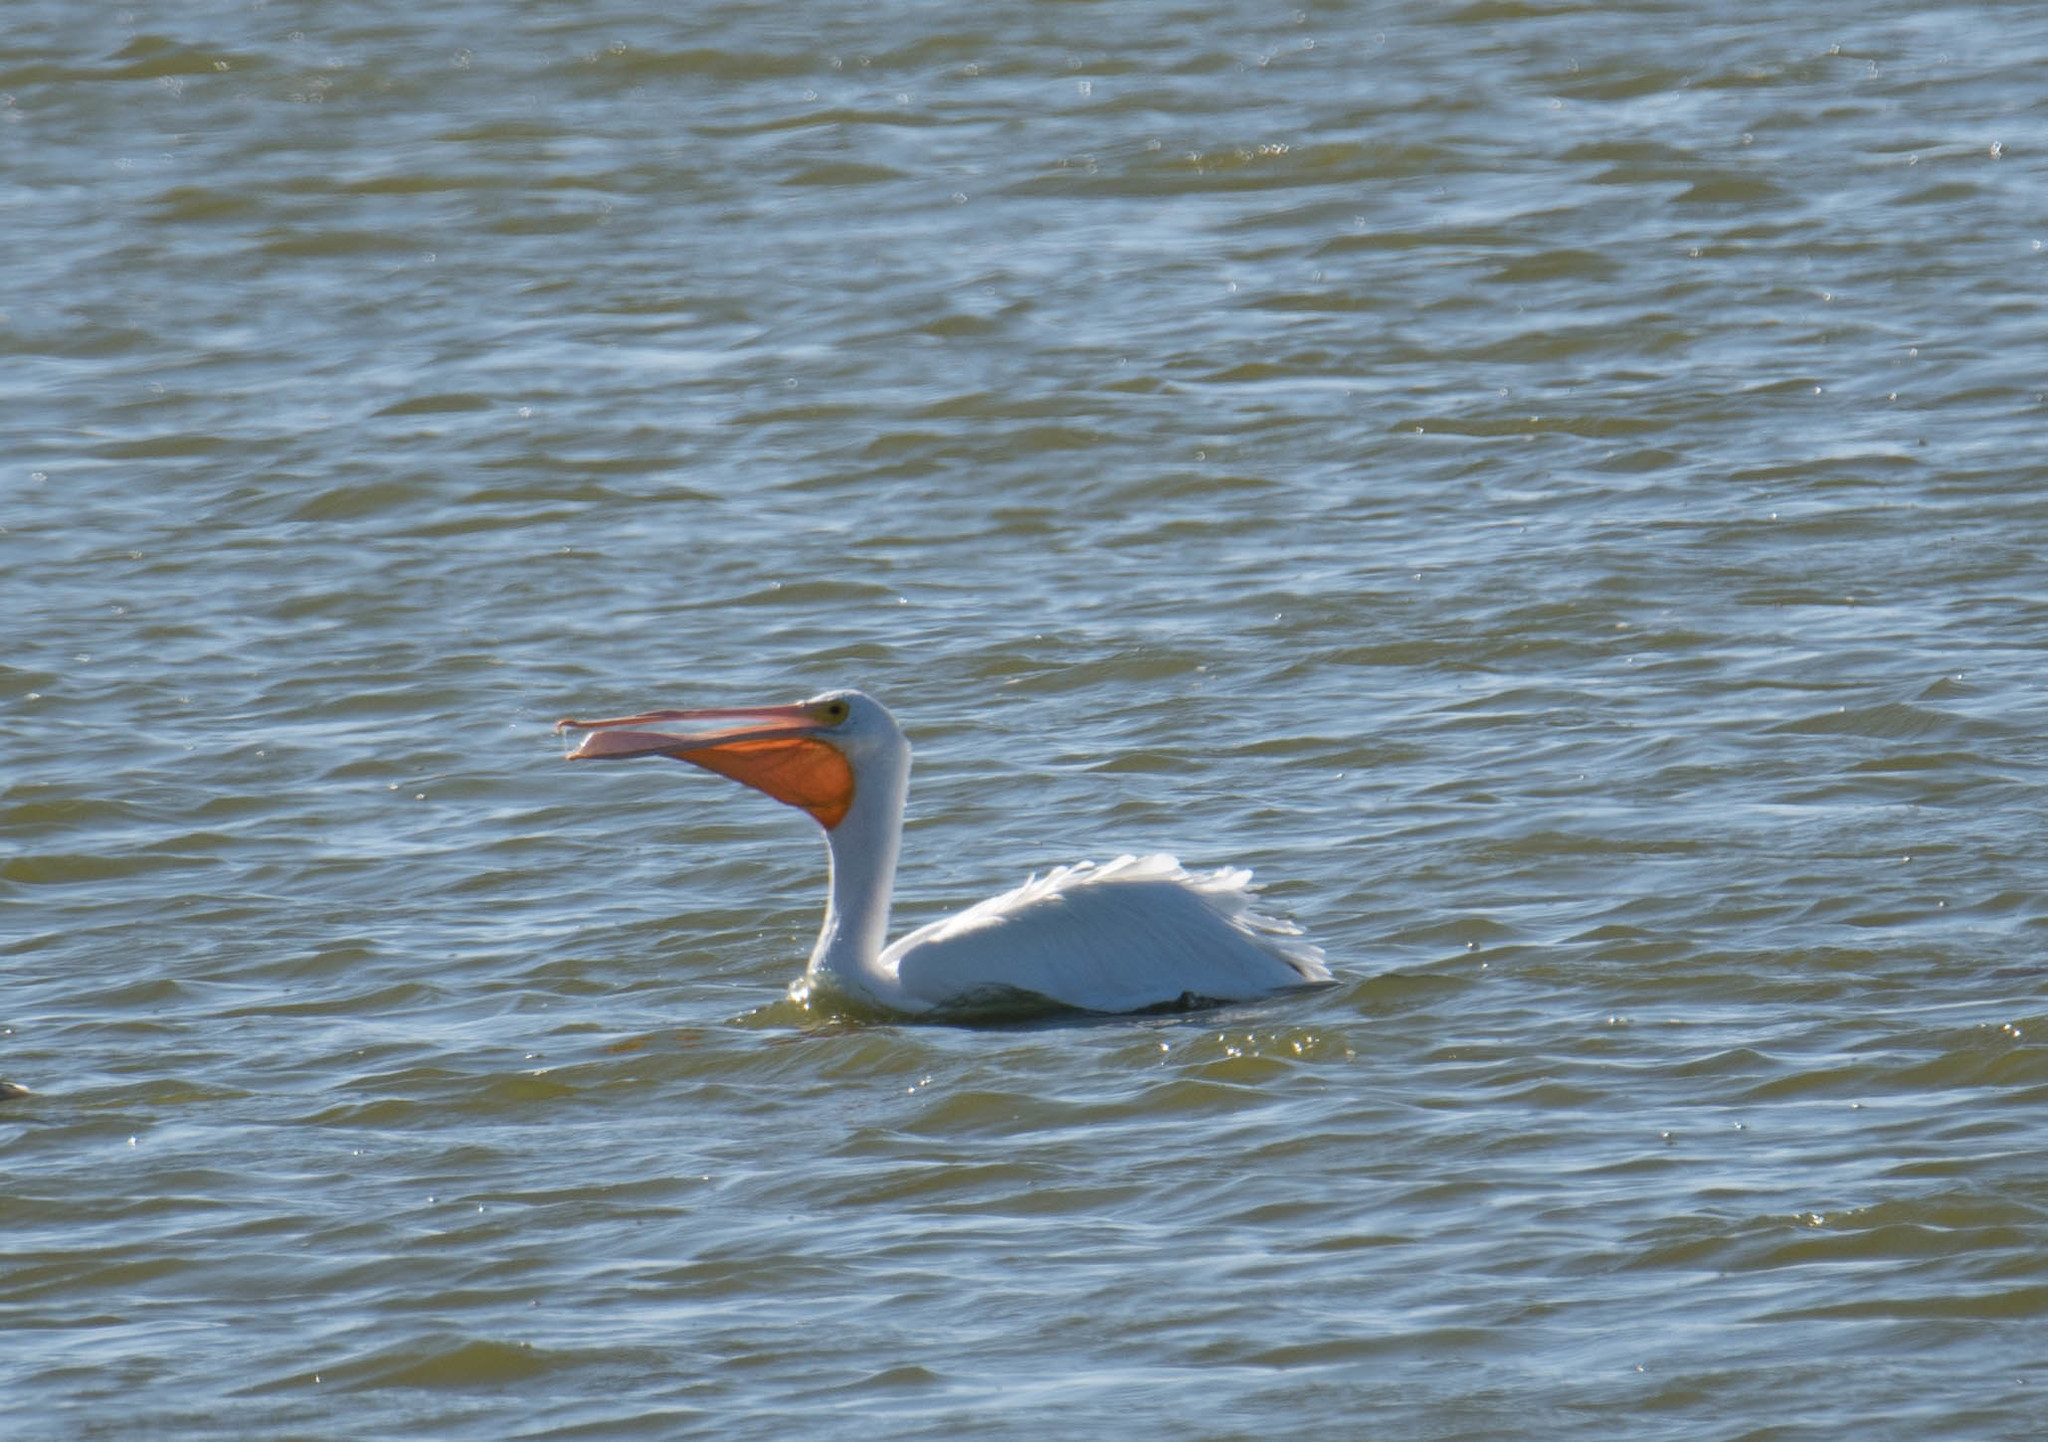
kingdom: Animalia
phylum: Chordata
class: Aves
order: Pelecaniformes
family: Pelecanidae
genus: Pelecanus
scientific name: Pelecanus erythrorhynchos
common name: American white pelican
